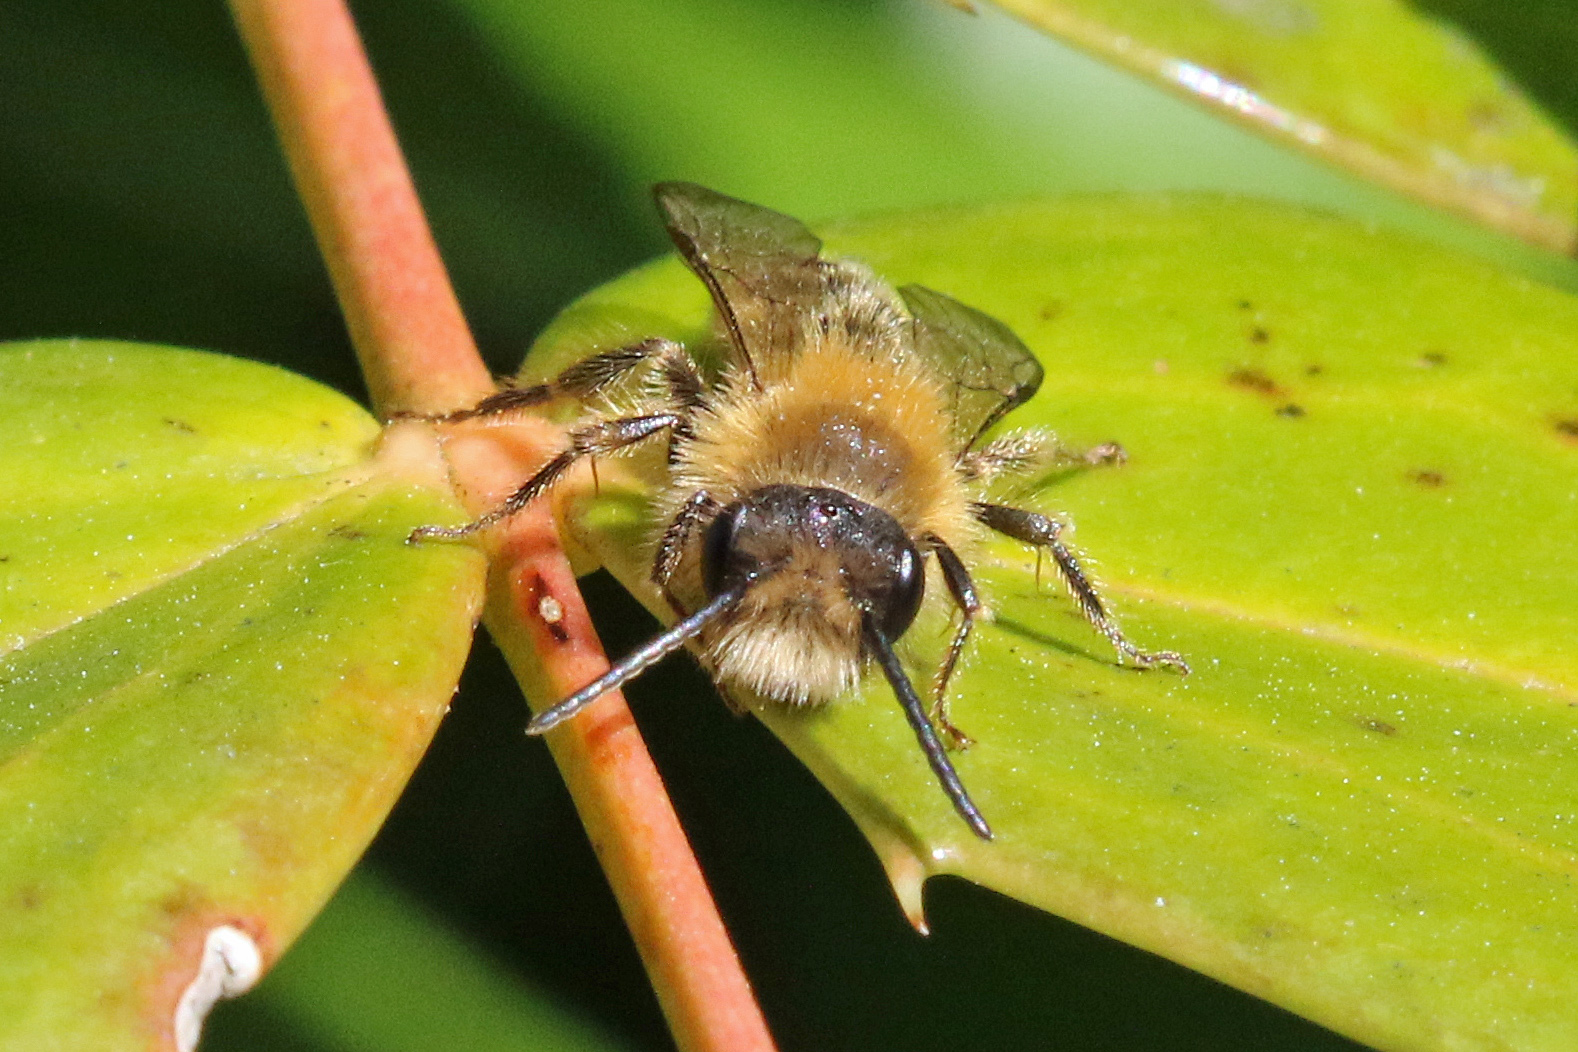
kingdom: Animalia
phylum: Arthropoda
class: Insecta
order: Hymenoptera
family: Andrenidae
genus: Andrena
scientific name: Andrena fulva
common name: Tawny mining bee
